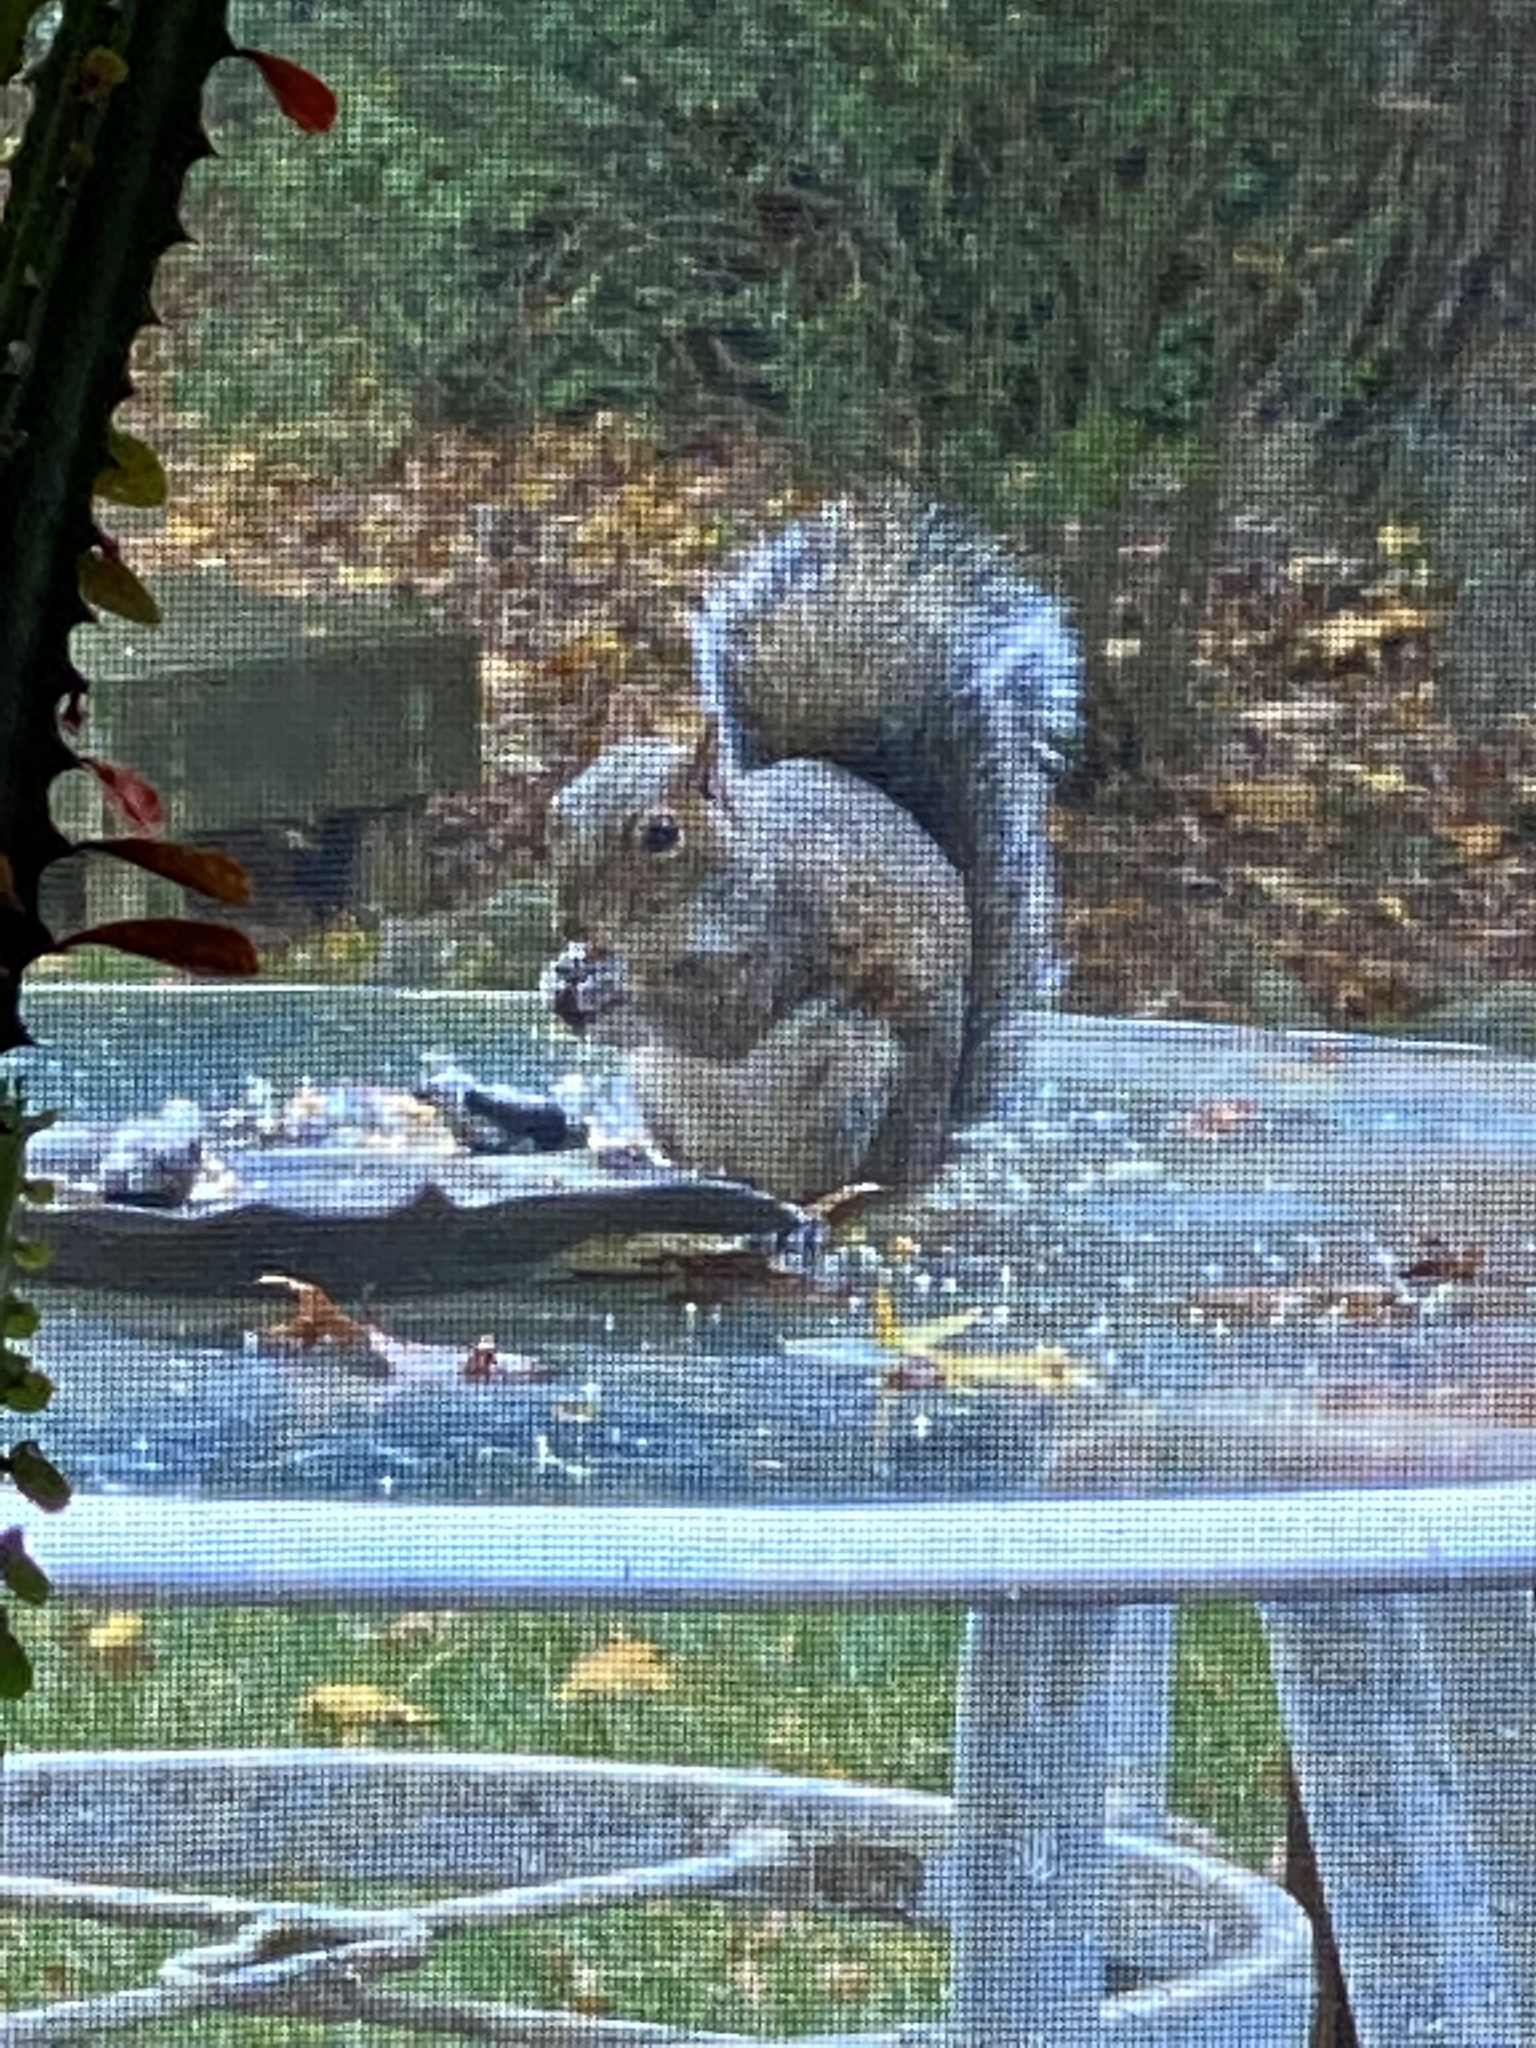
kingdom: Animalia
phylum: Chordata
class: Mammalia
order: Rodentia
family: Sciuridae
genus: Sciurus
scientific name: Sciurus carolinensis
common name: Eastern gray squirrel
